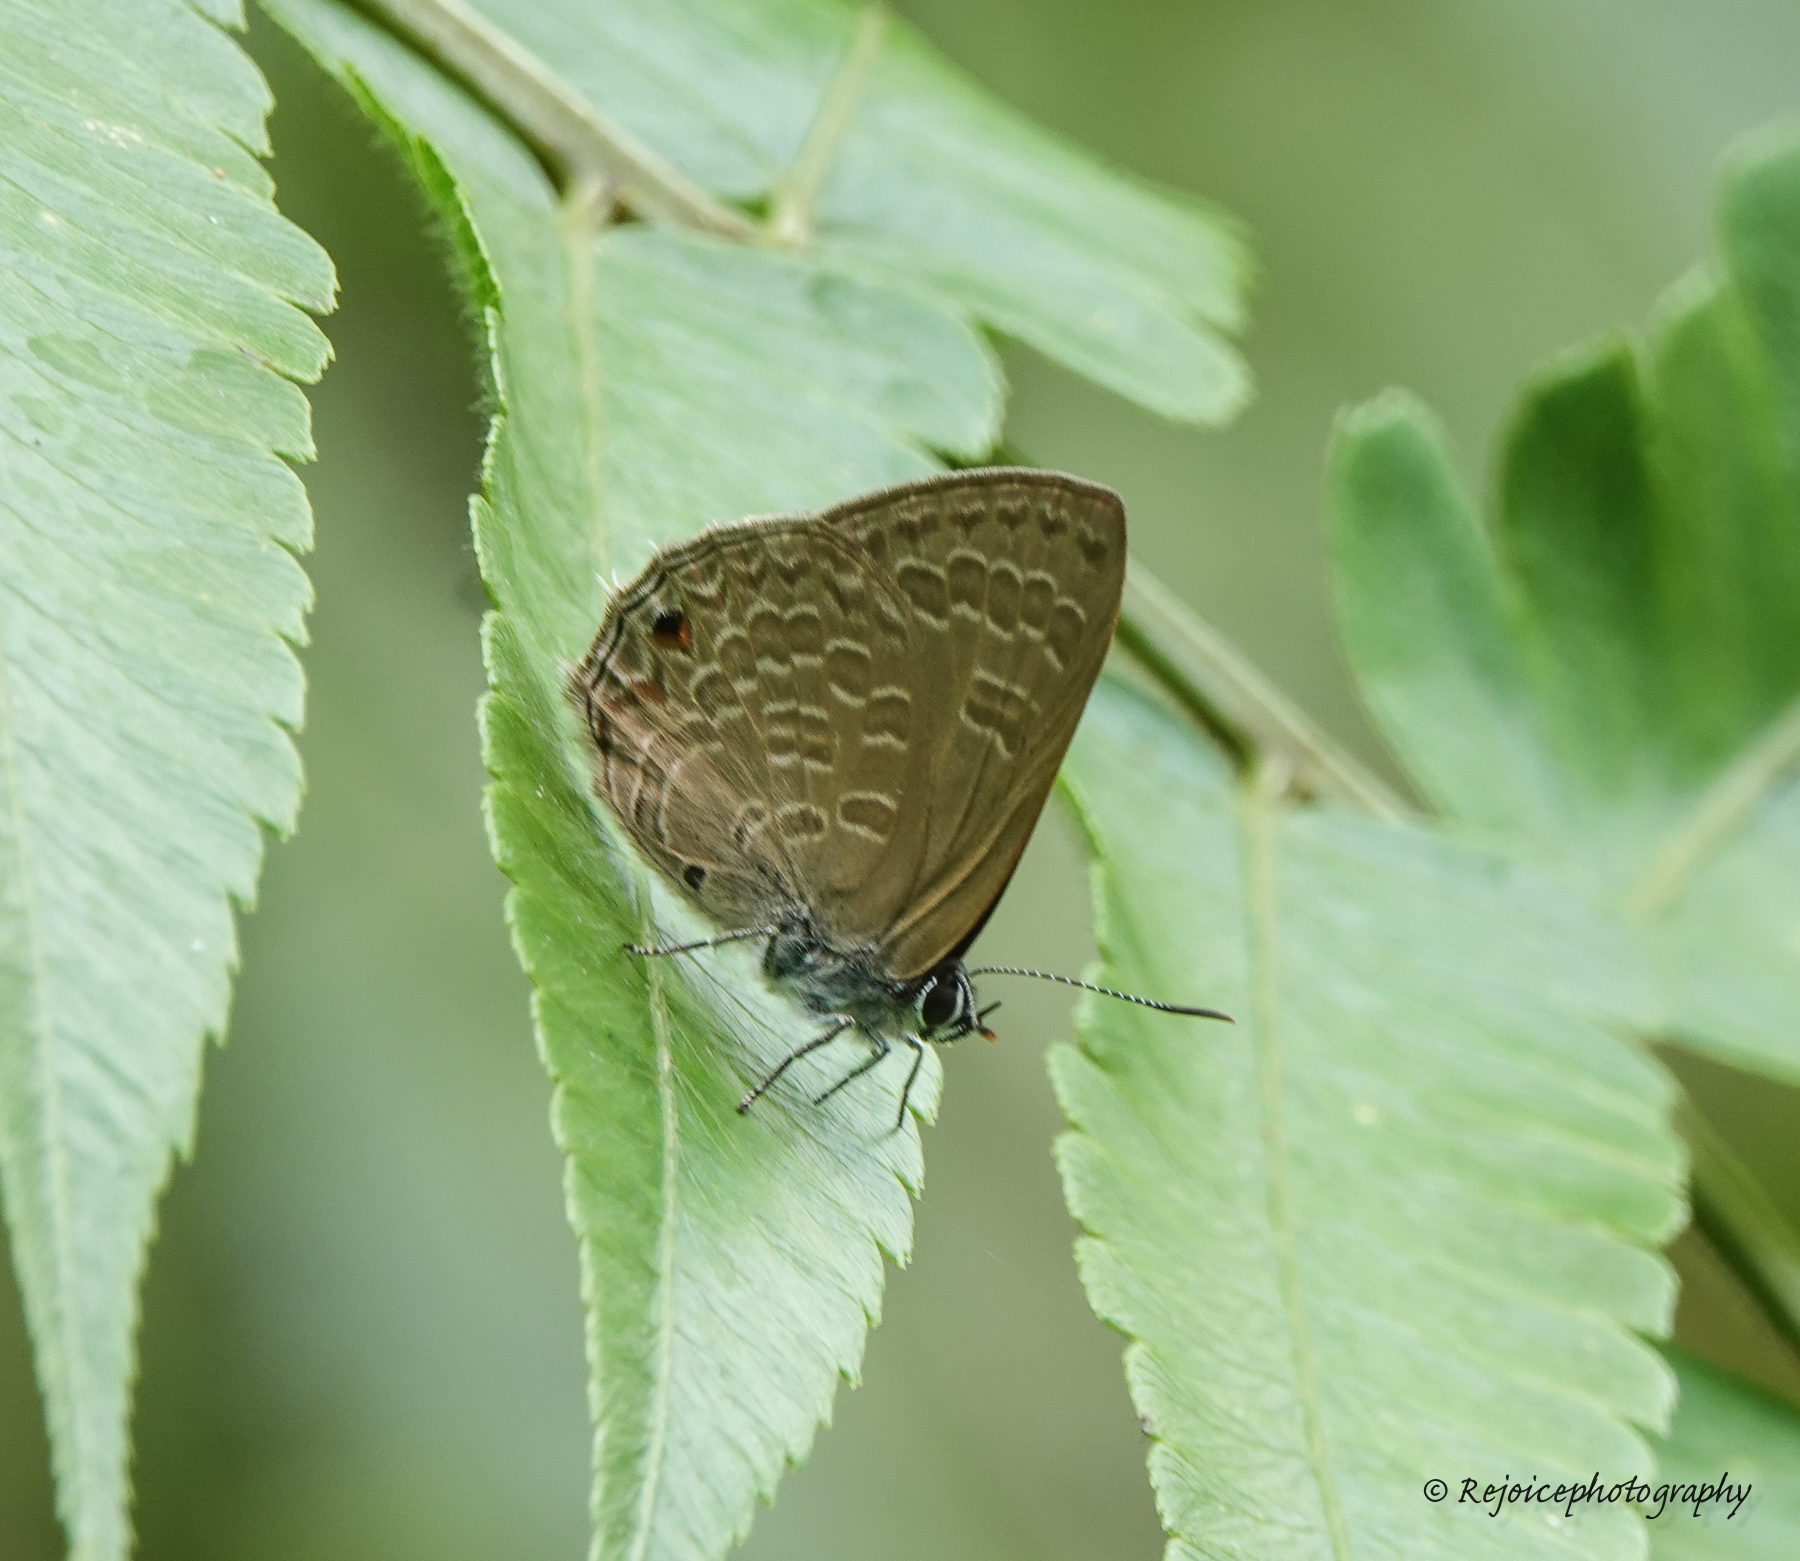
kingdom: Animalia
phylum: Arthropoda
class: Insecta
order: Lepidoptera
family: Lycaenidae
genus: Anthene
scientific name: Anthene emolus
